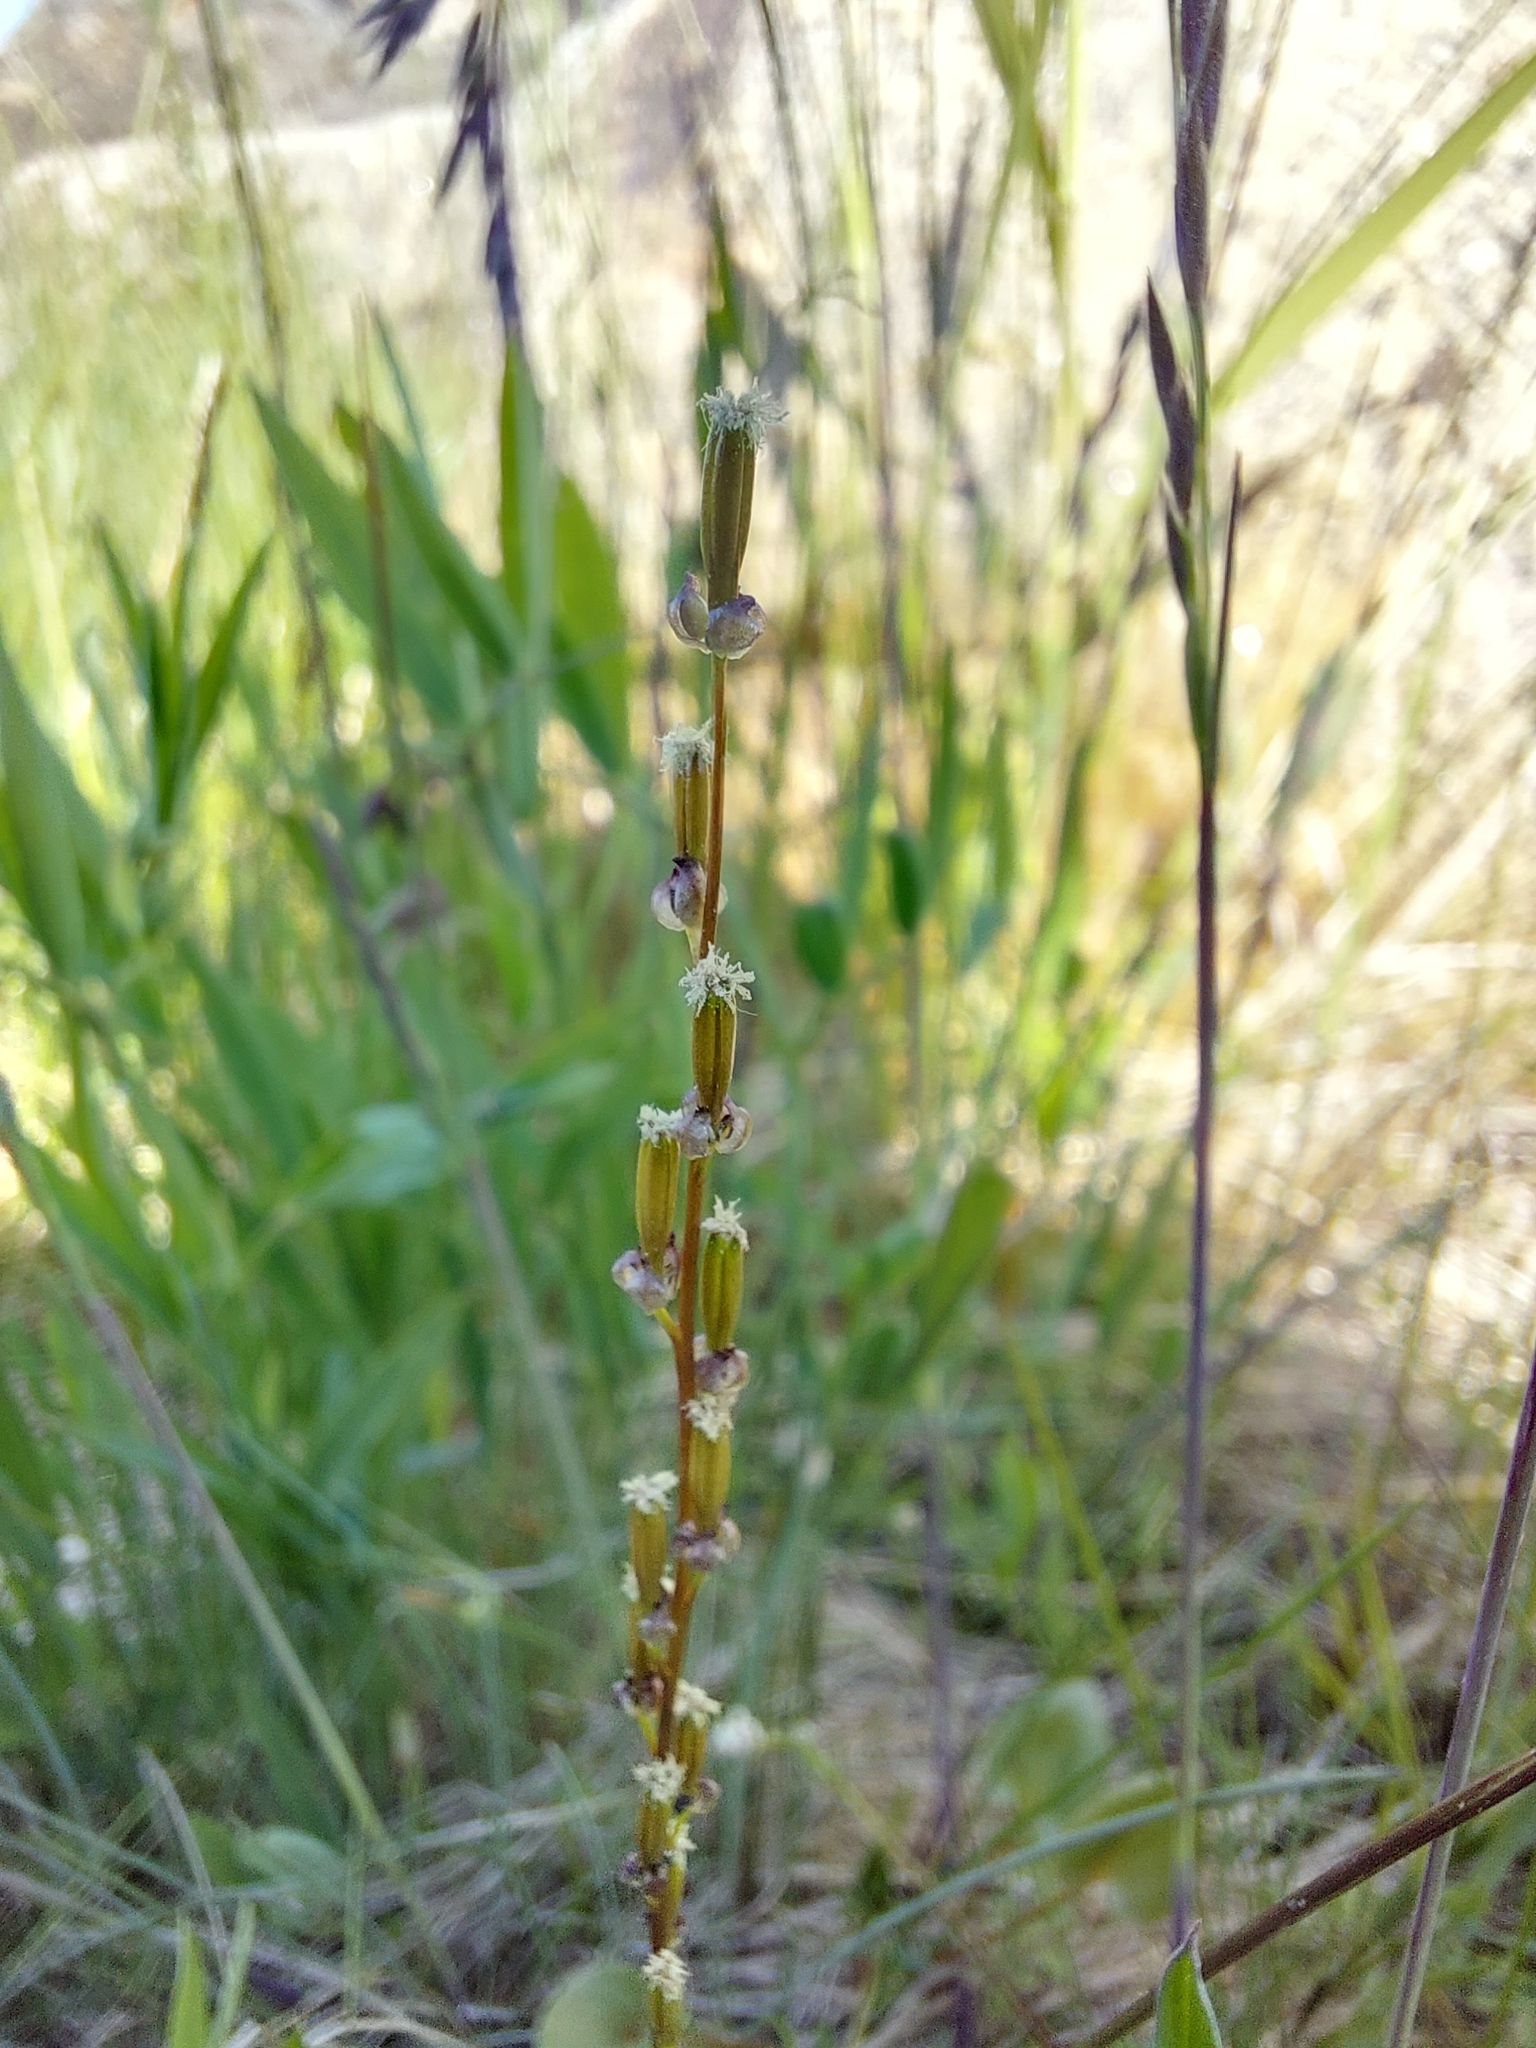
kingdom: Plantae
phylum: Tracheophyta
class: Liliopsida
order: Alismatales
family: Juncaginaceae
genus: Triglochin
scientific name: Triglochin palustris
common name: Marsh arrowgrass
